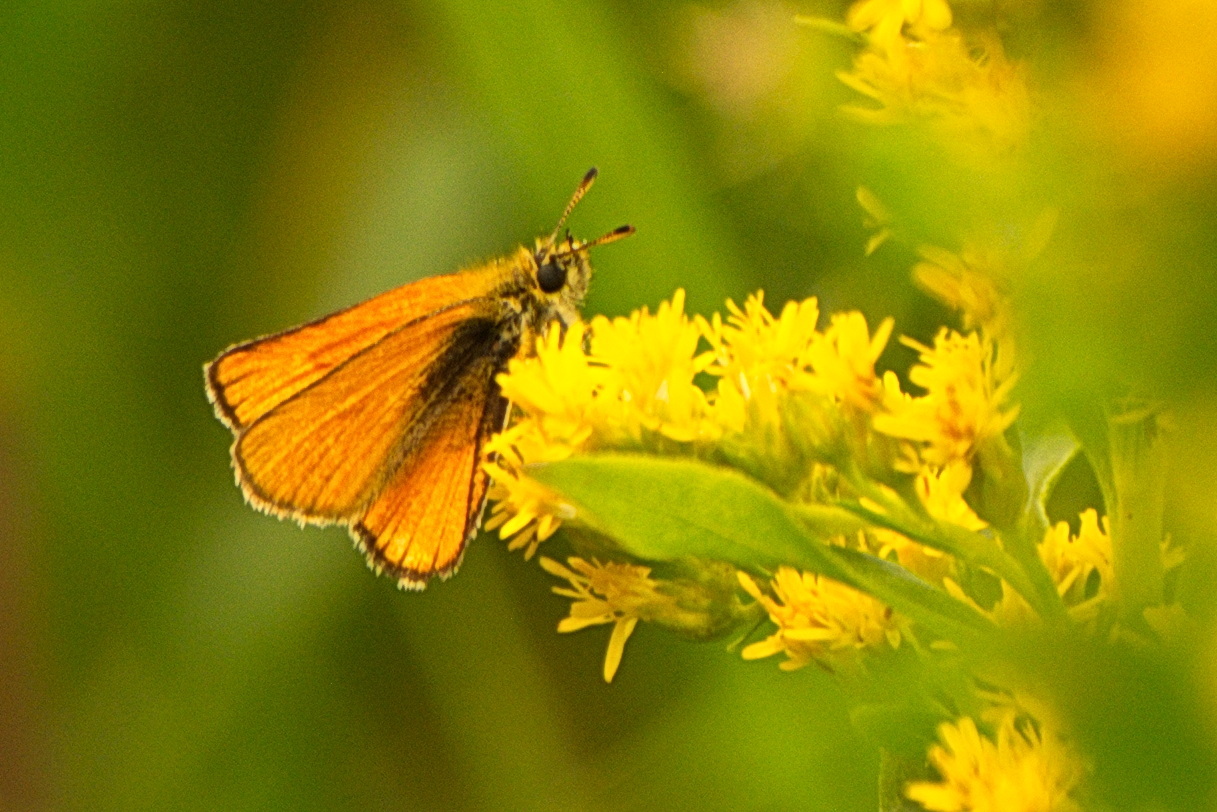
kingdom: Animalia
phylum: Arthropoda
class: Insecta
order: Lepidoptera
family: Hesperiidae
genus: Thymelicus
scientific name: Thymelicus lineola
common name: Essex skipper
